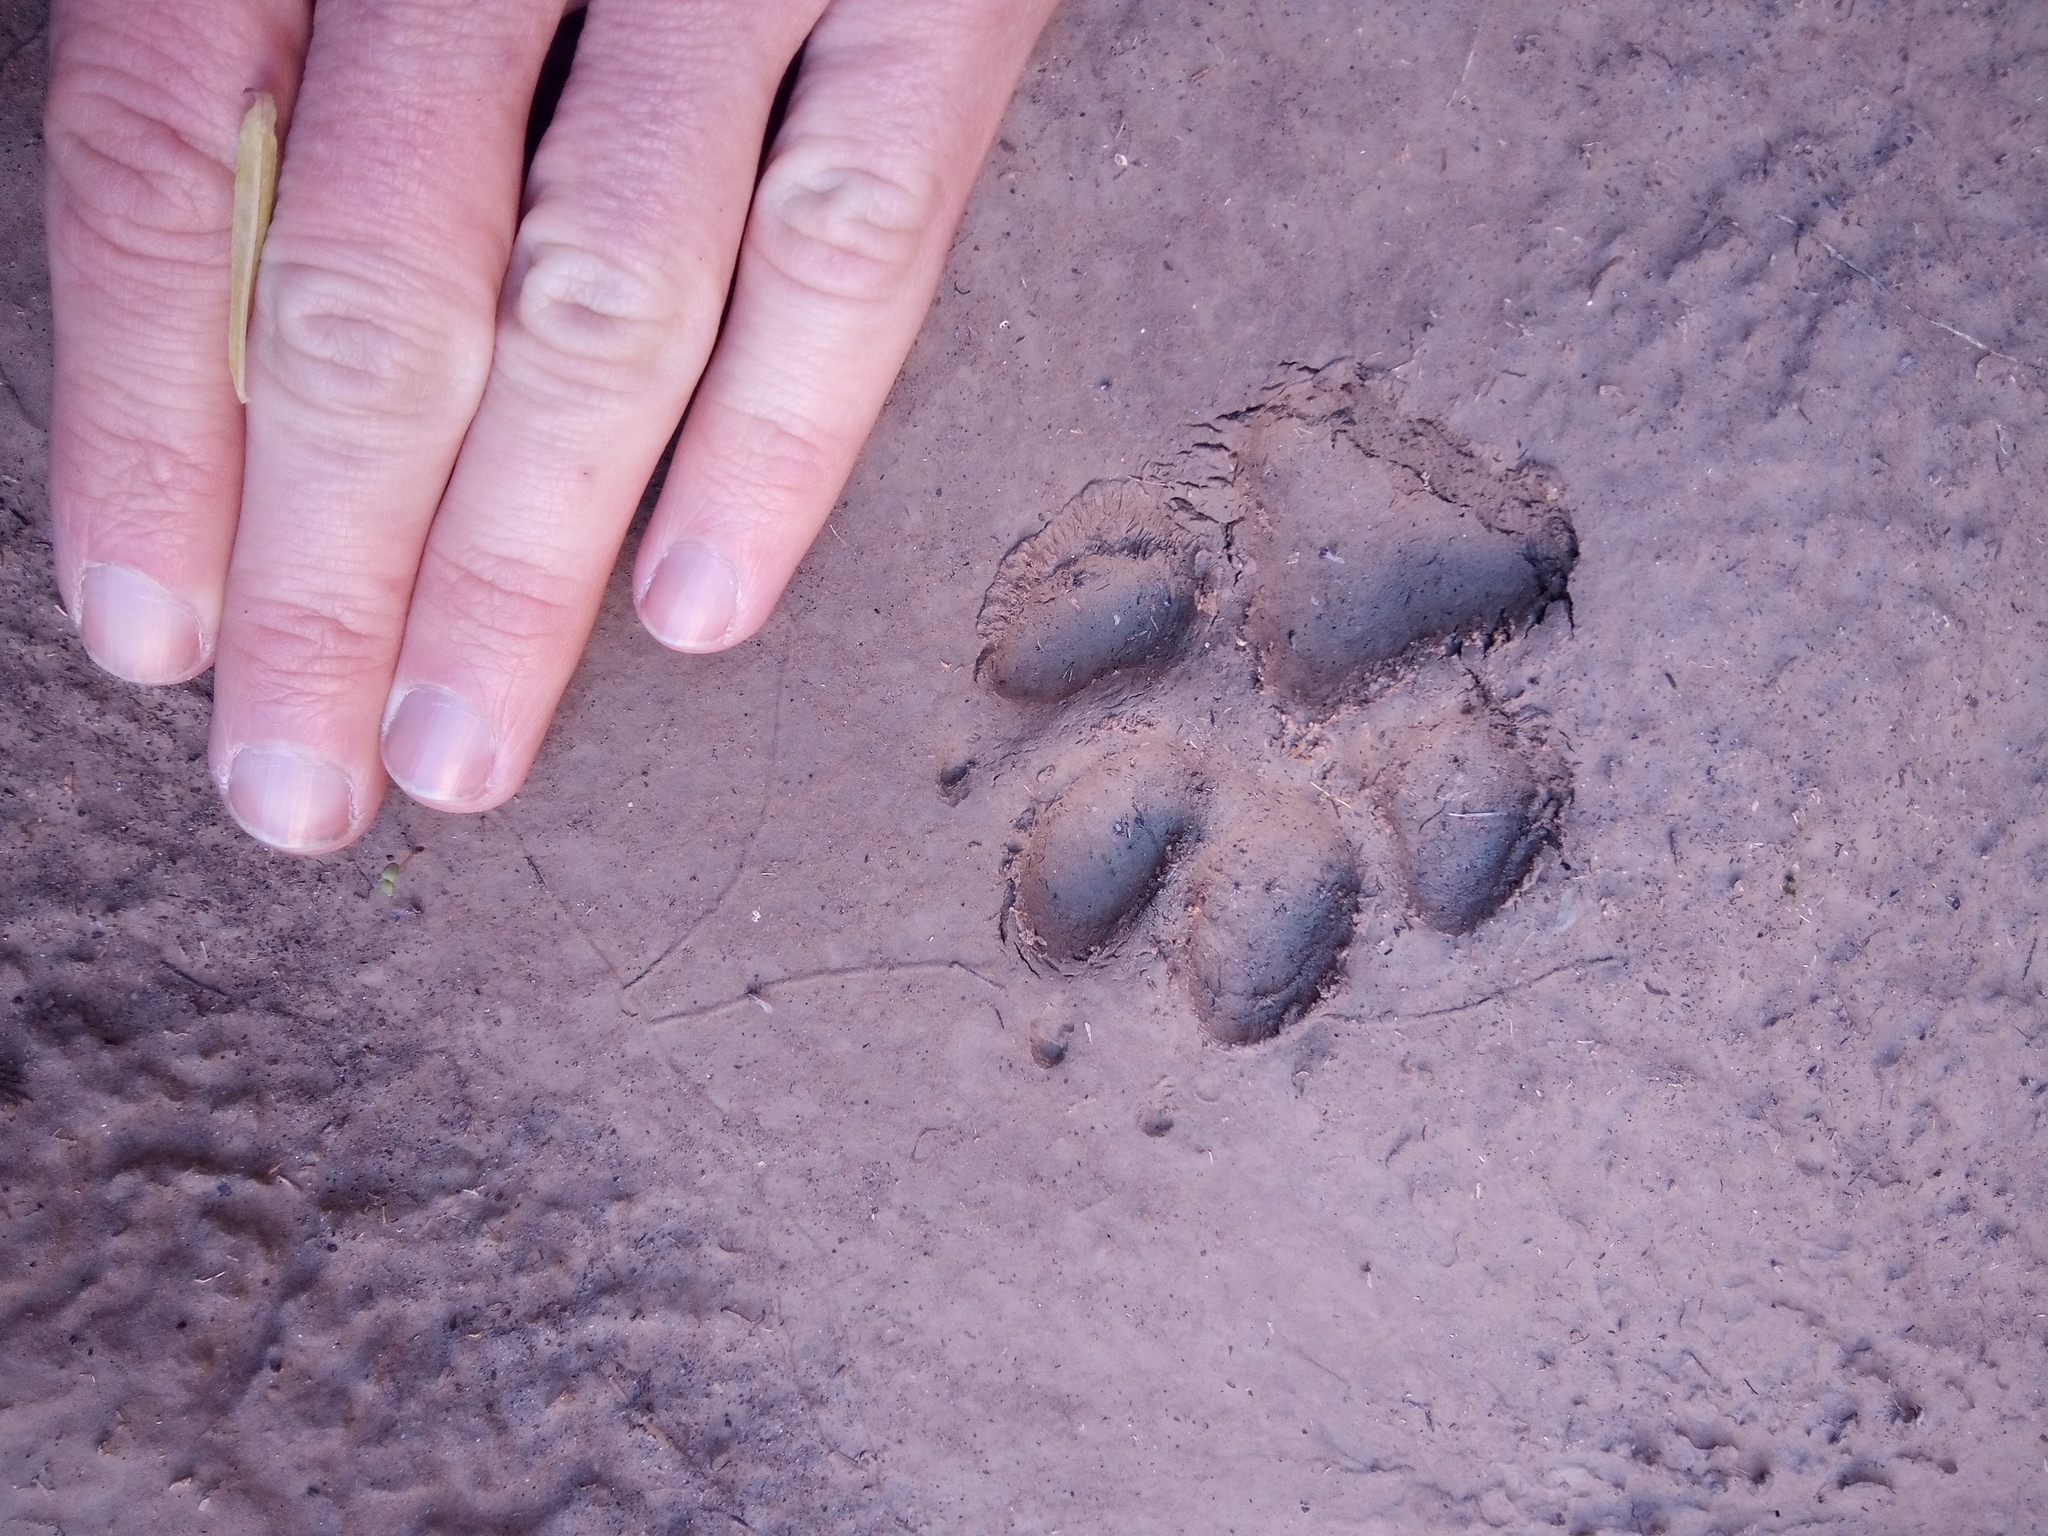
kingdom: Animalia
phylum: Chordata
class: Mammalia
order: Carnivora
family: Canidae
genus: Canis
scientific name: Canis latrans
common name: Coyote
